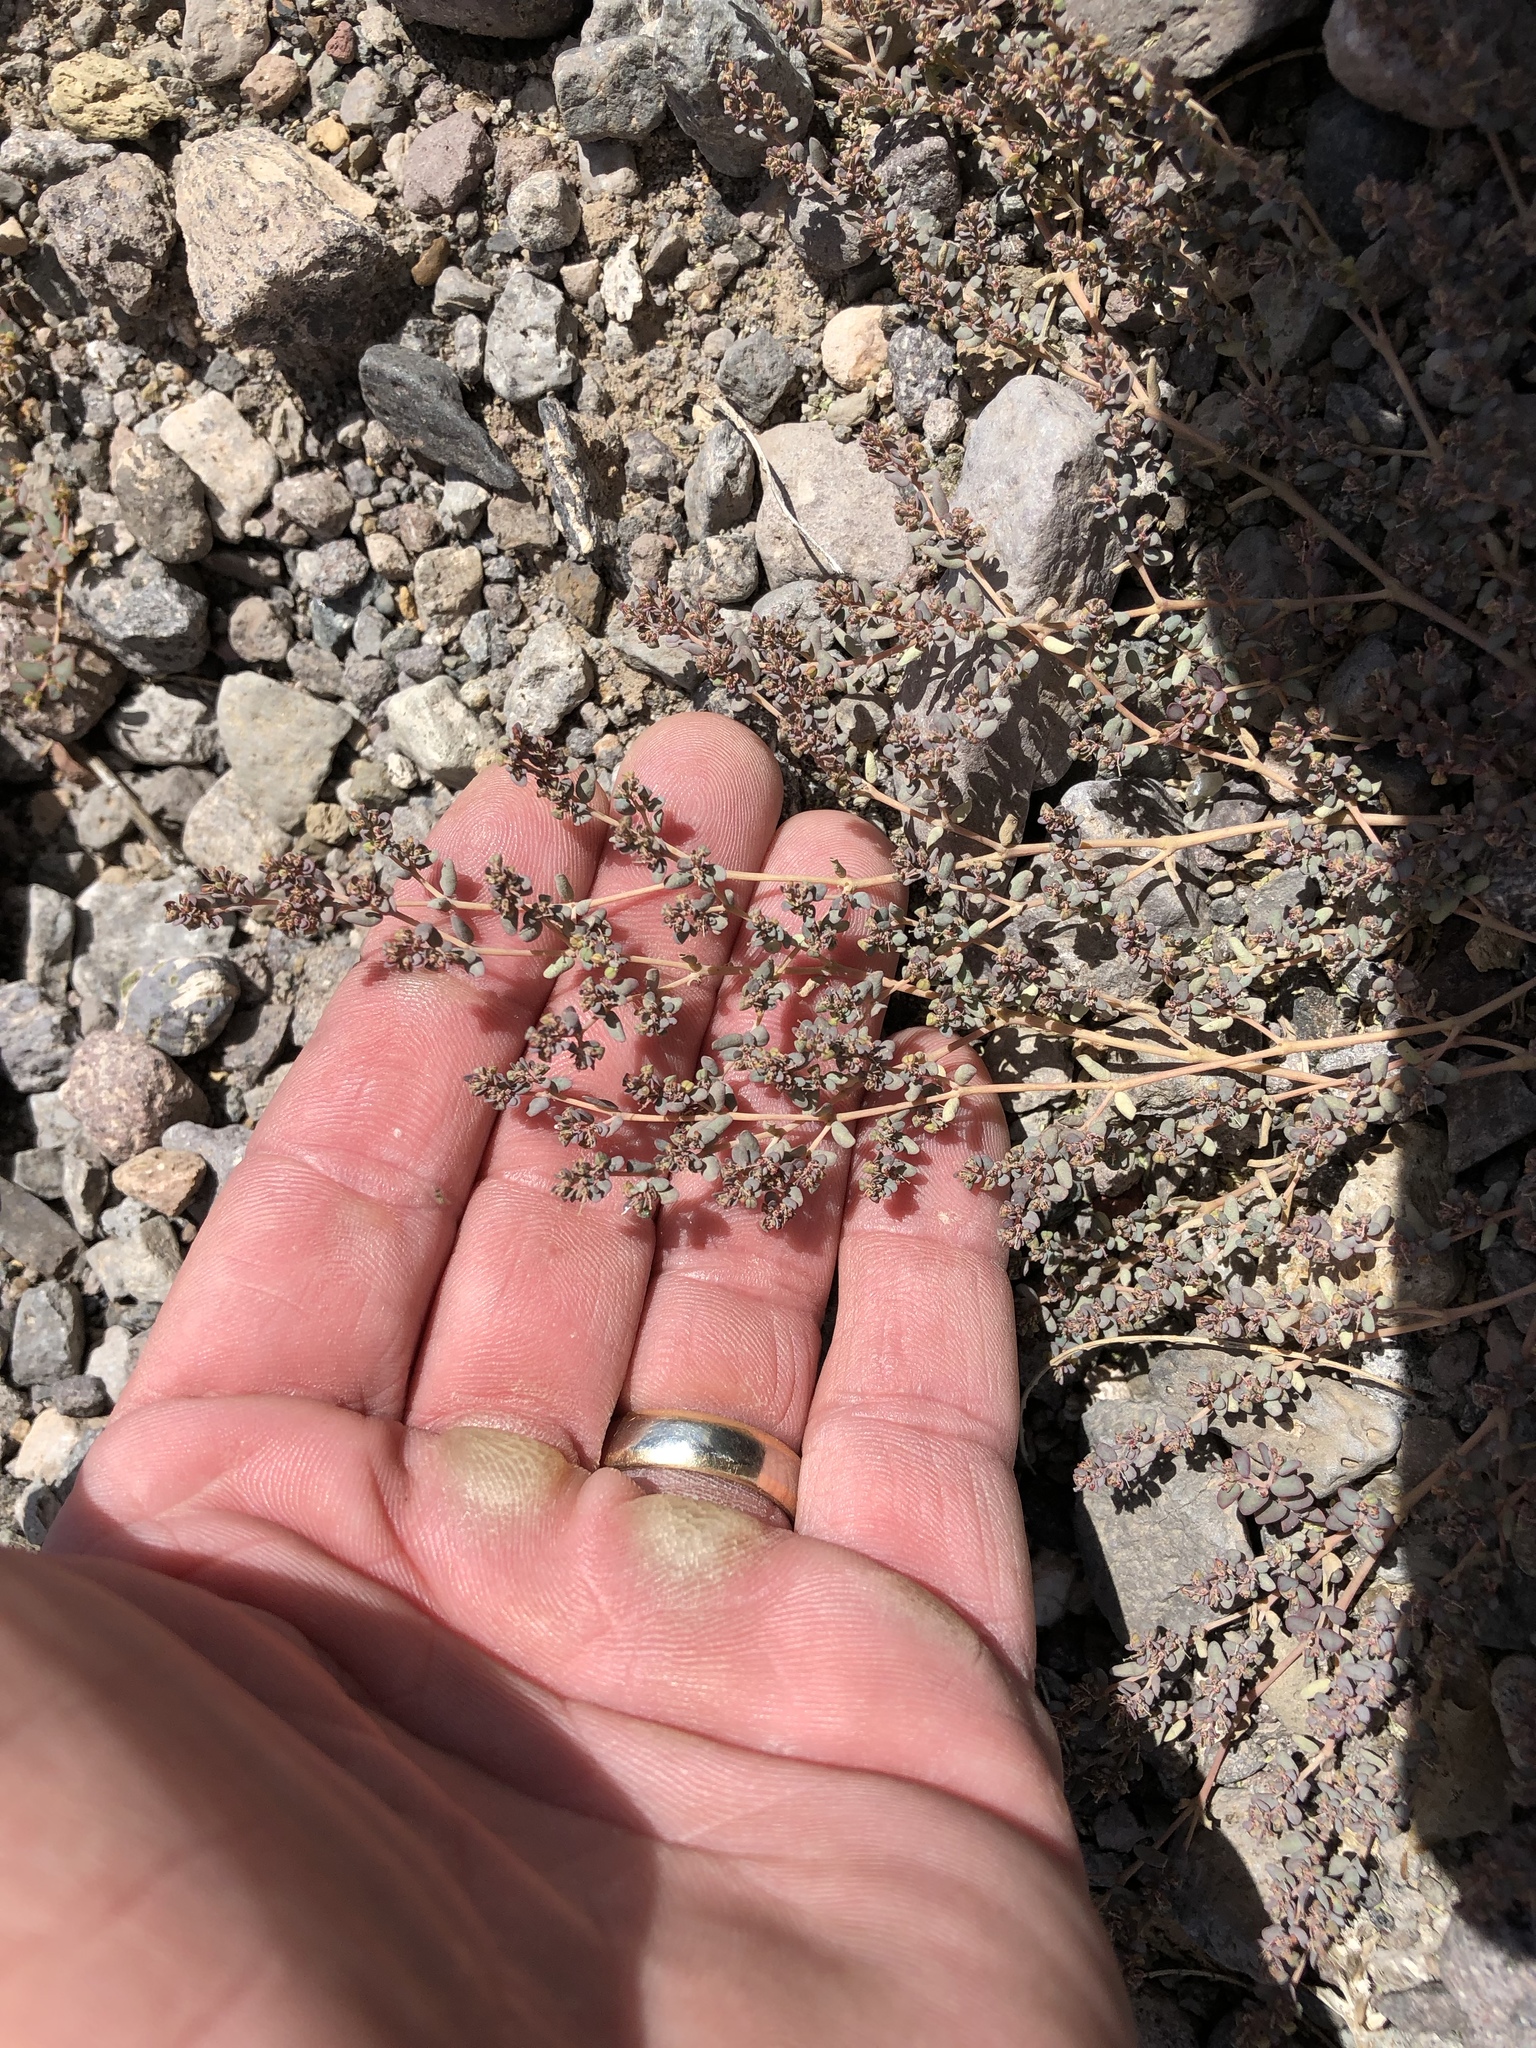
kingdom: Plantae
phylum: Tracheophyta
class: Magnoliopsida
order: Malpighiales
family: Euphorbiaceae
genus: Euphorbia
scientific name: Euphorbia micromera
